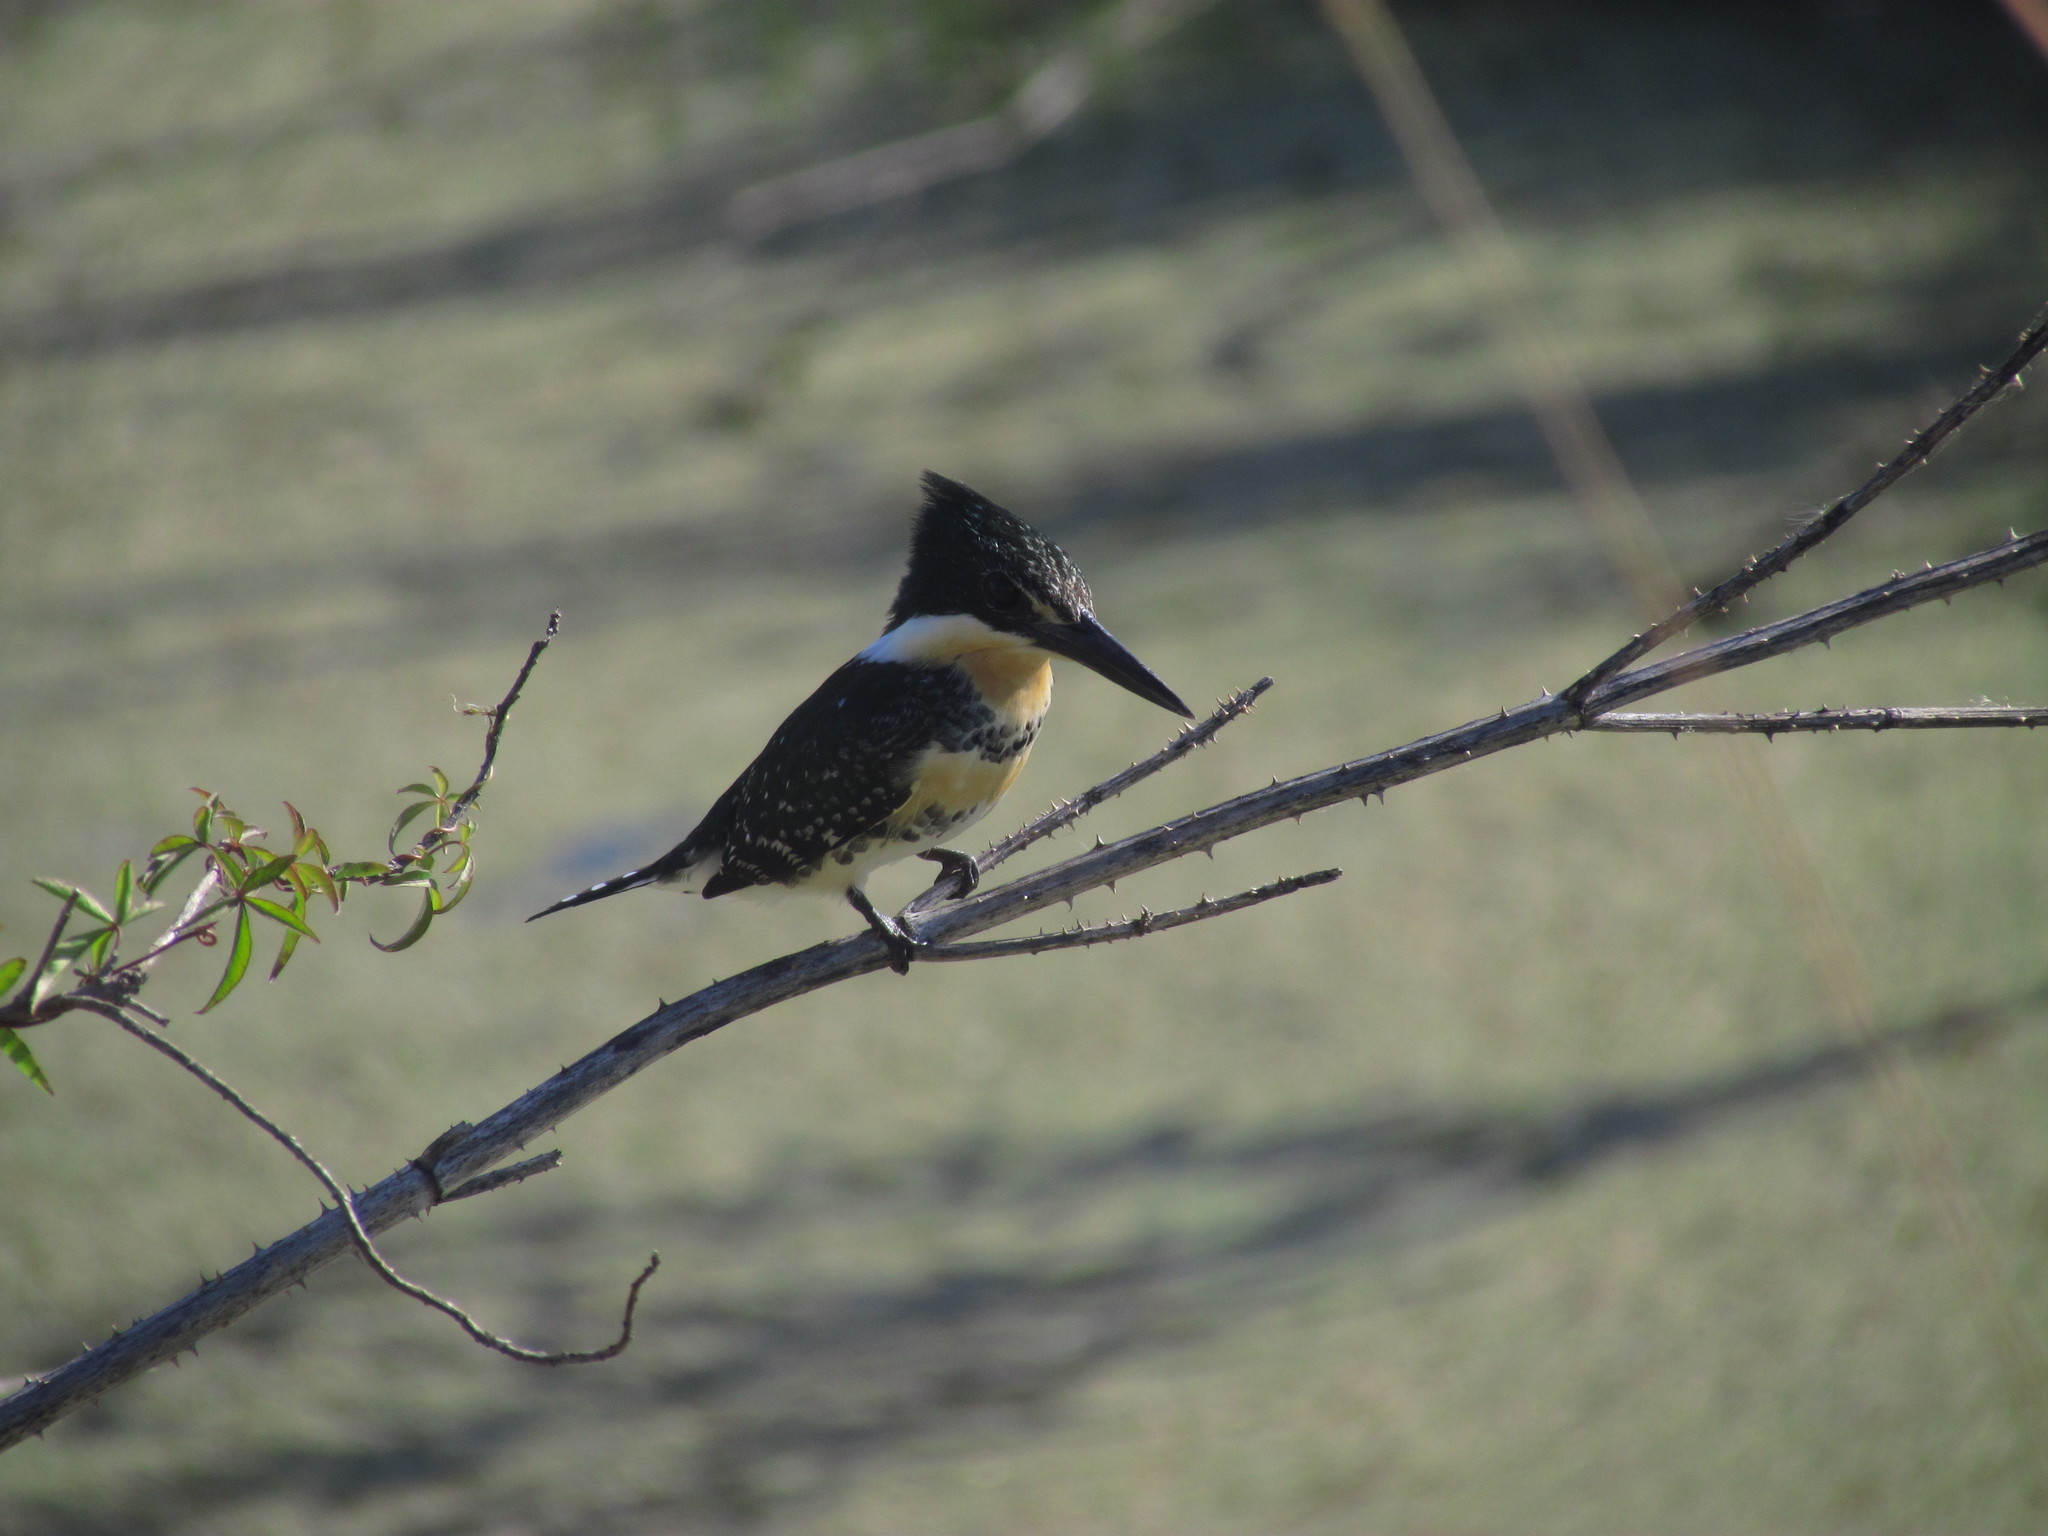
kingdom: Animalia
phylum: Chordata
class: Aves
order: Coraciiformes
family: Alcedinidae
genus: Chloroceryle
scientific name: Chloroceryle americana
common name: Green kingfisher
